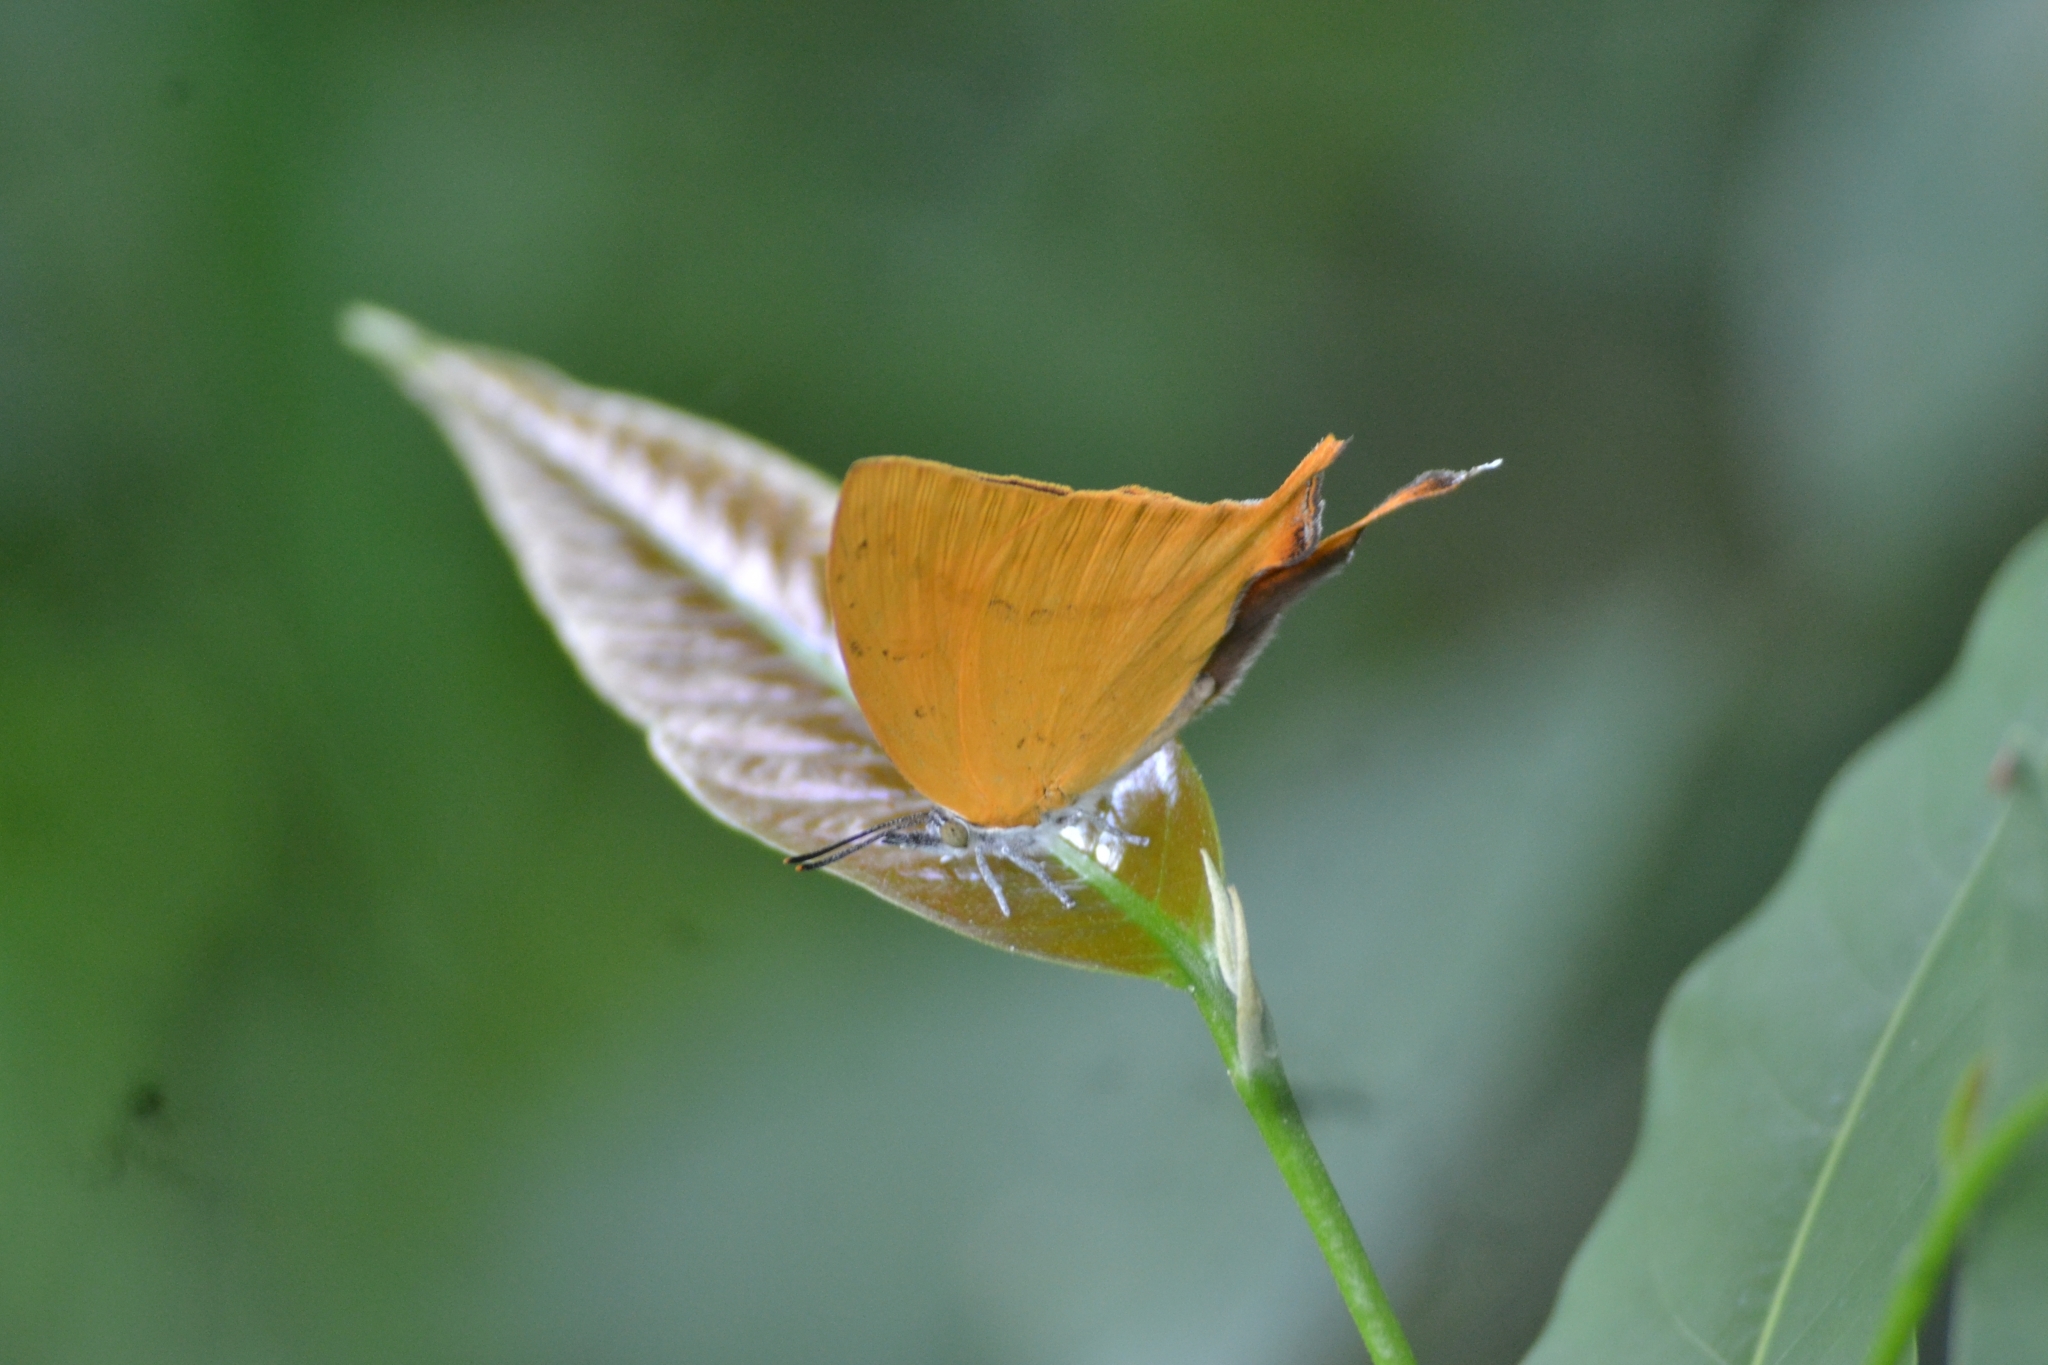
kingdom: Animalia
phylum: Arthropoda
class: Insecta
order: Lepidoptera
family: Lycaenidae
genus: Loxura
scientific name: Loxura atymnus
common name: Common yamfly
